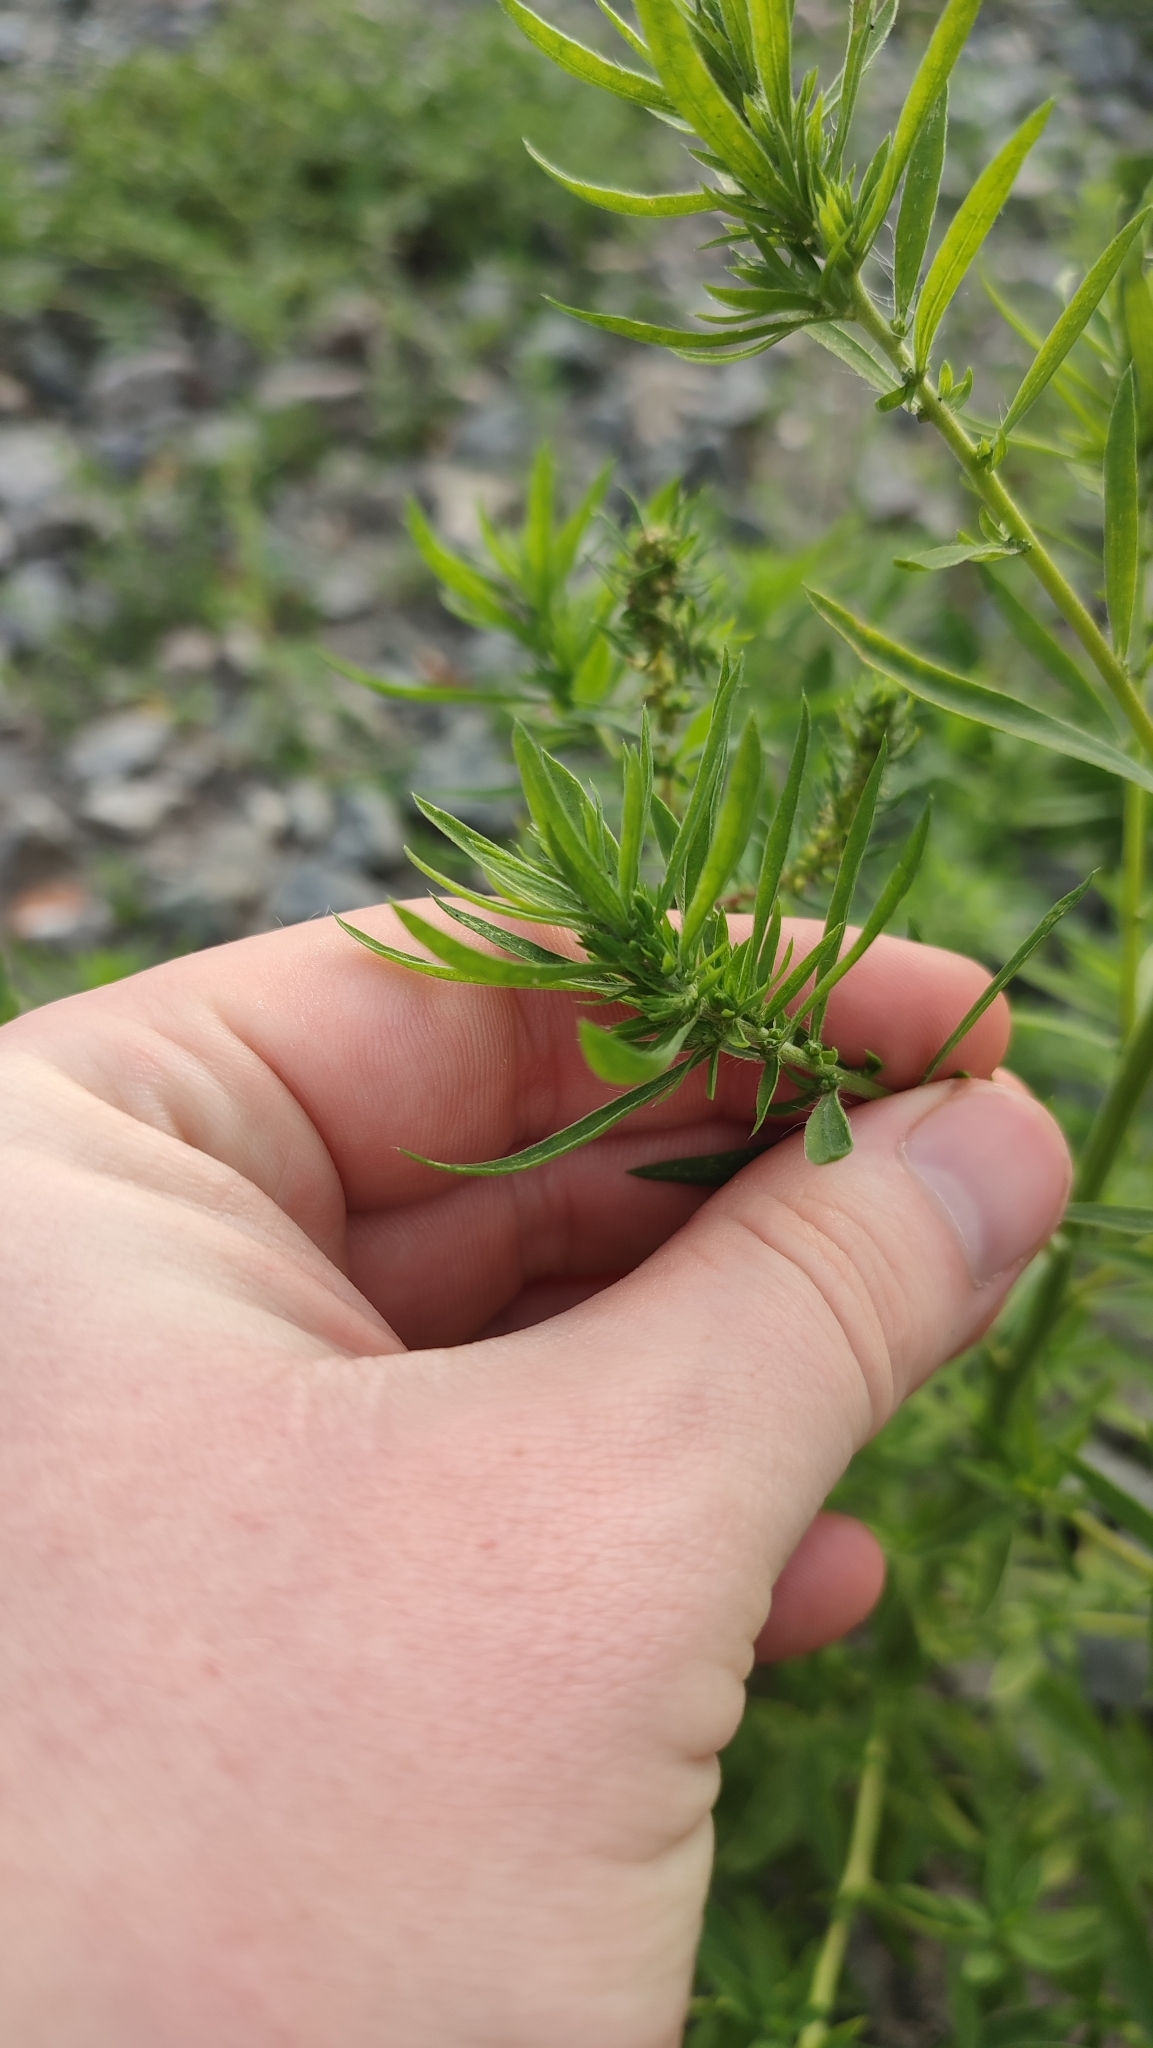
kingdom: Plantae
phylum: Tracheophyta
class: Magnoliopsida
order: Caryophyllales
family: Amaranthaceae
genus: Bassia
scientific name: Bassia scoparia
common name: Belvedere
